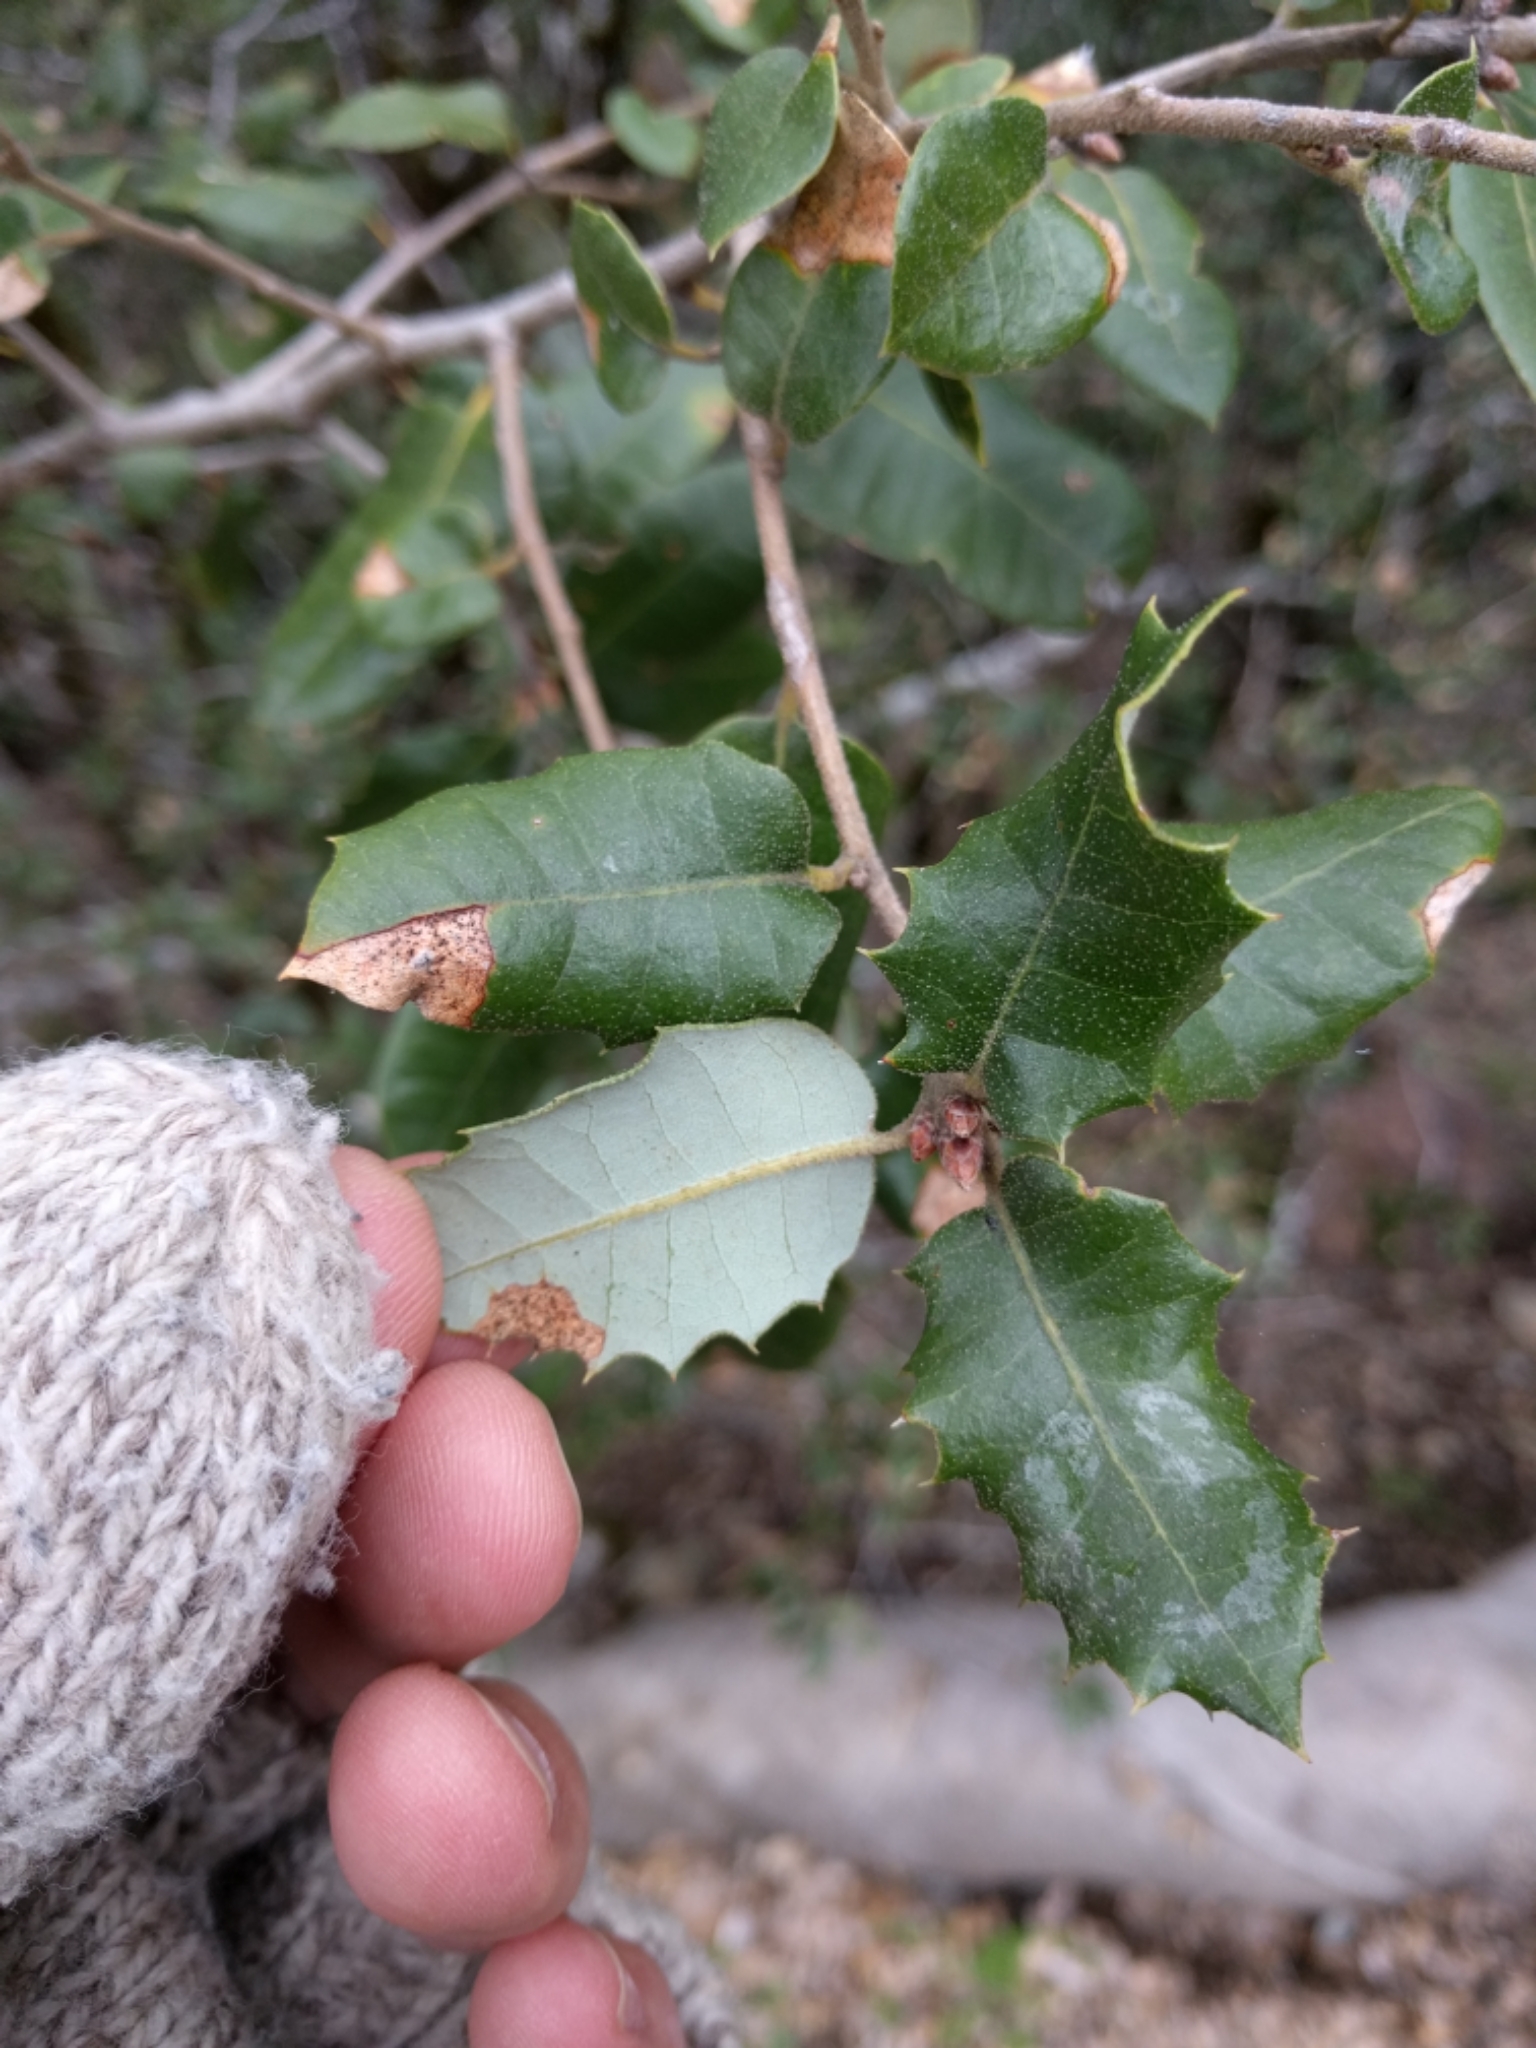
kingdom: Plantae
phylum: Tracheophyta
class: Magnoliopsida
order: Fagales
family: Fagaceae
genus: Quercus
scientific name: Quercus chrysolepis
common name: Canyon live oak
